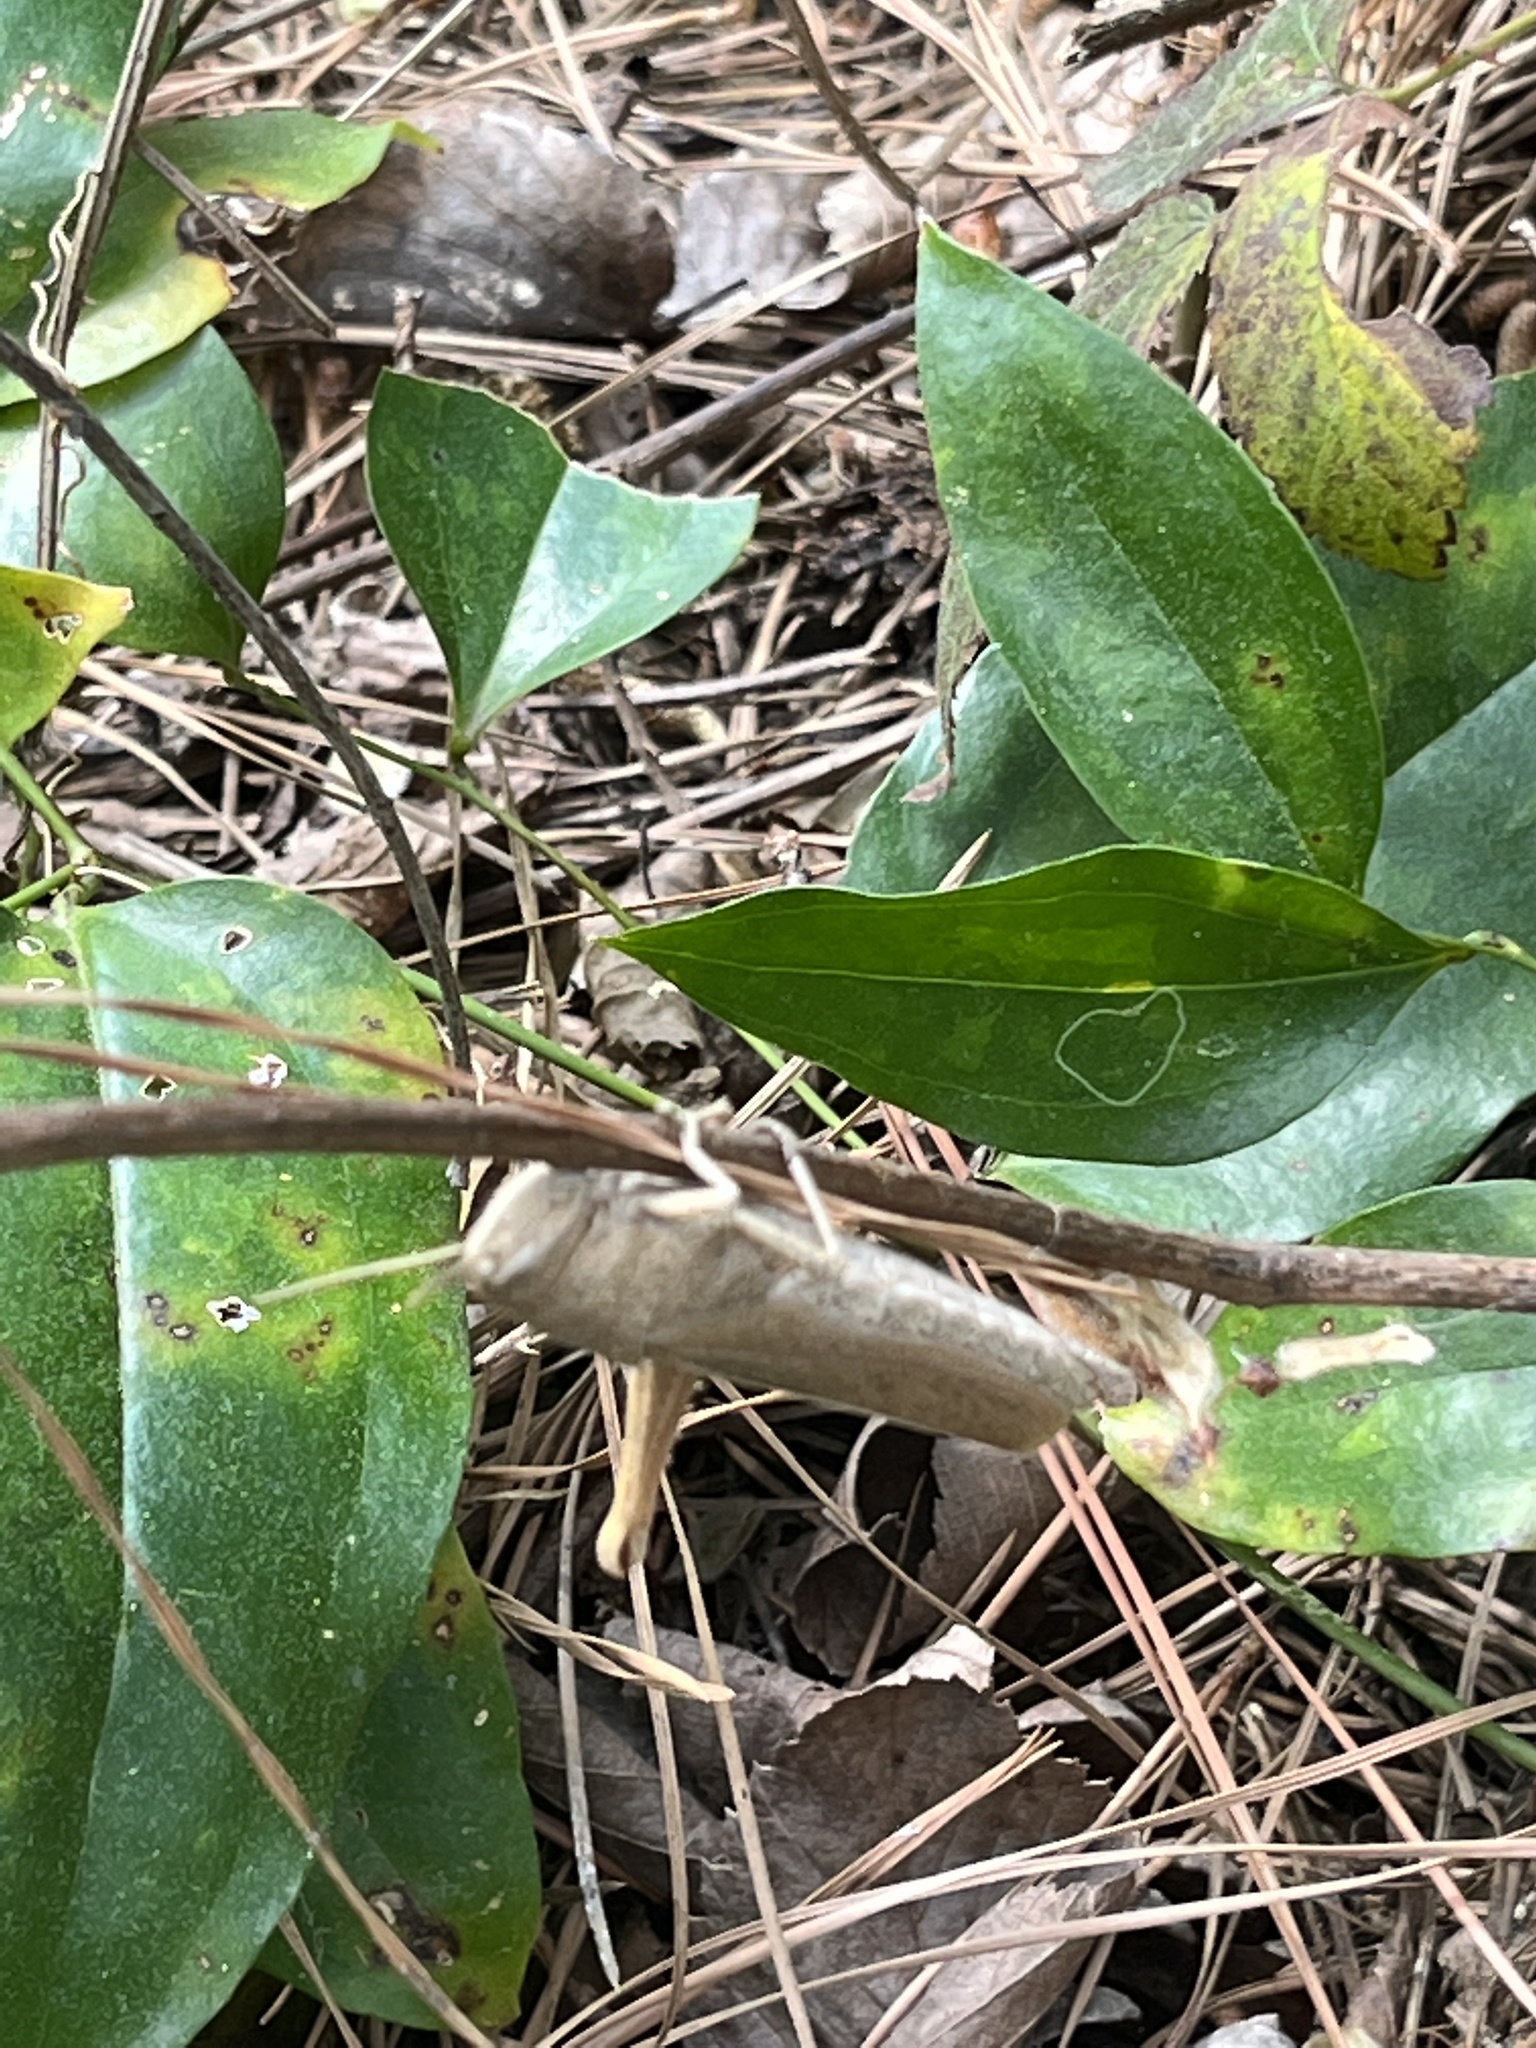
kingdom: Animalia
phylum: Arthropoda
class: Insecta
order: Orthoptera
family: Acrididae
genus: Schistocerca
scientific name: Schistocerca damnifica
